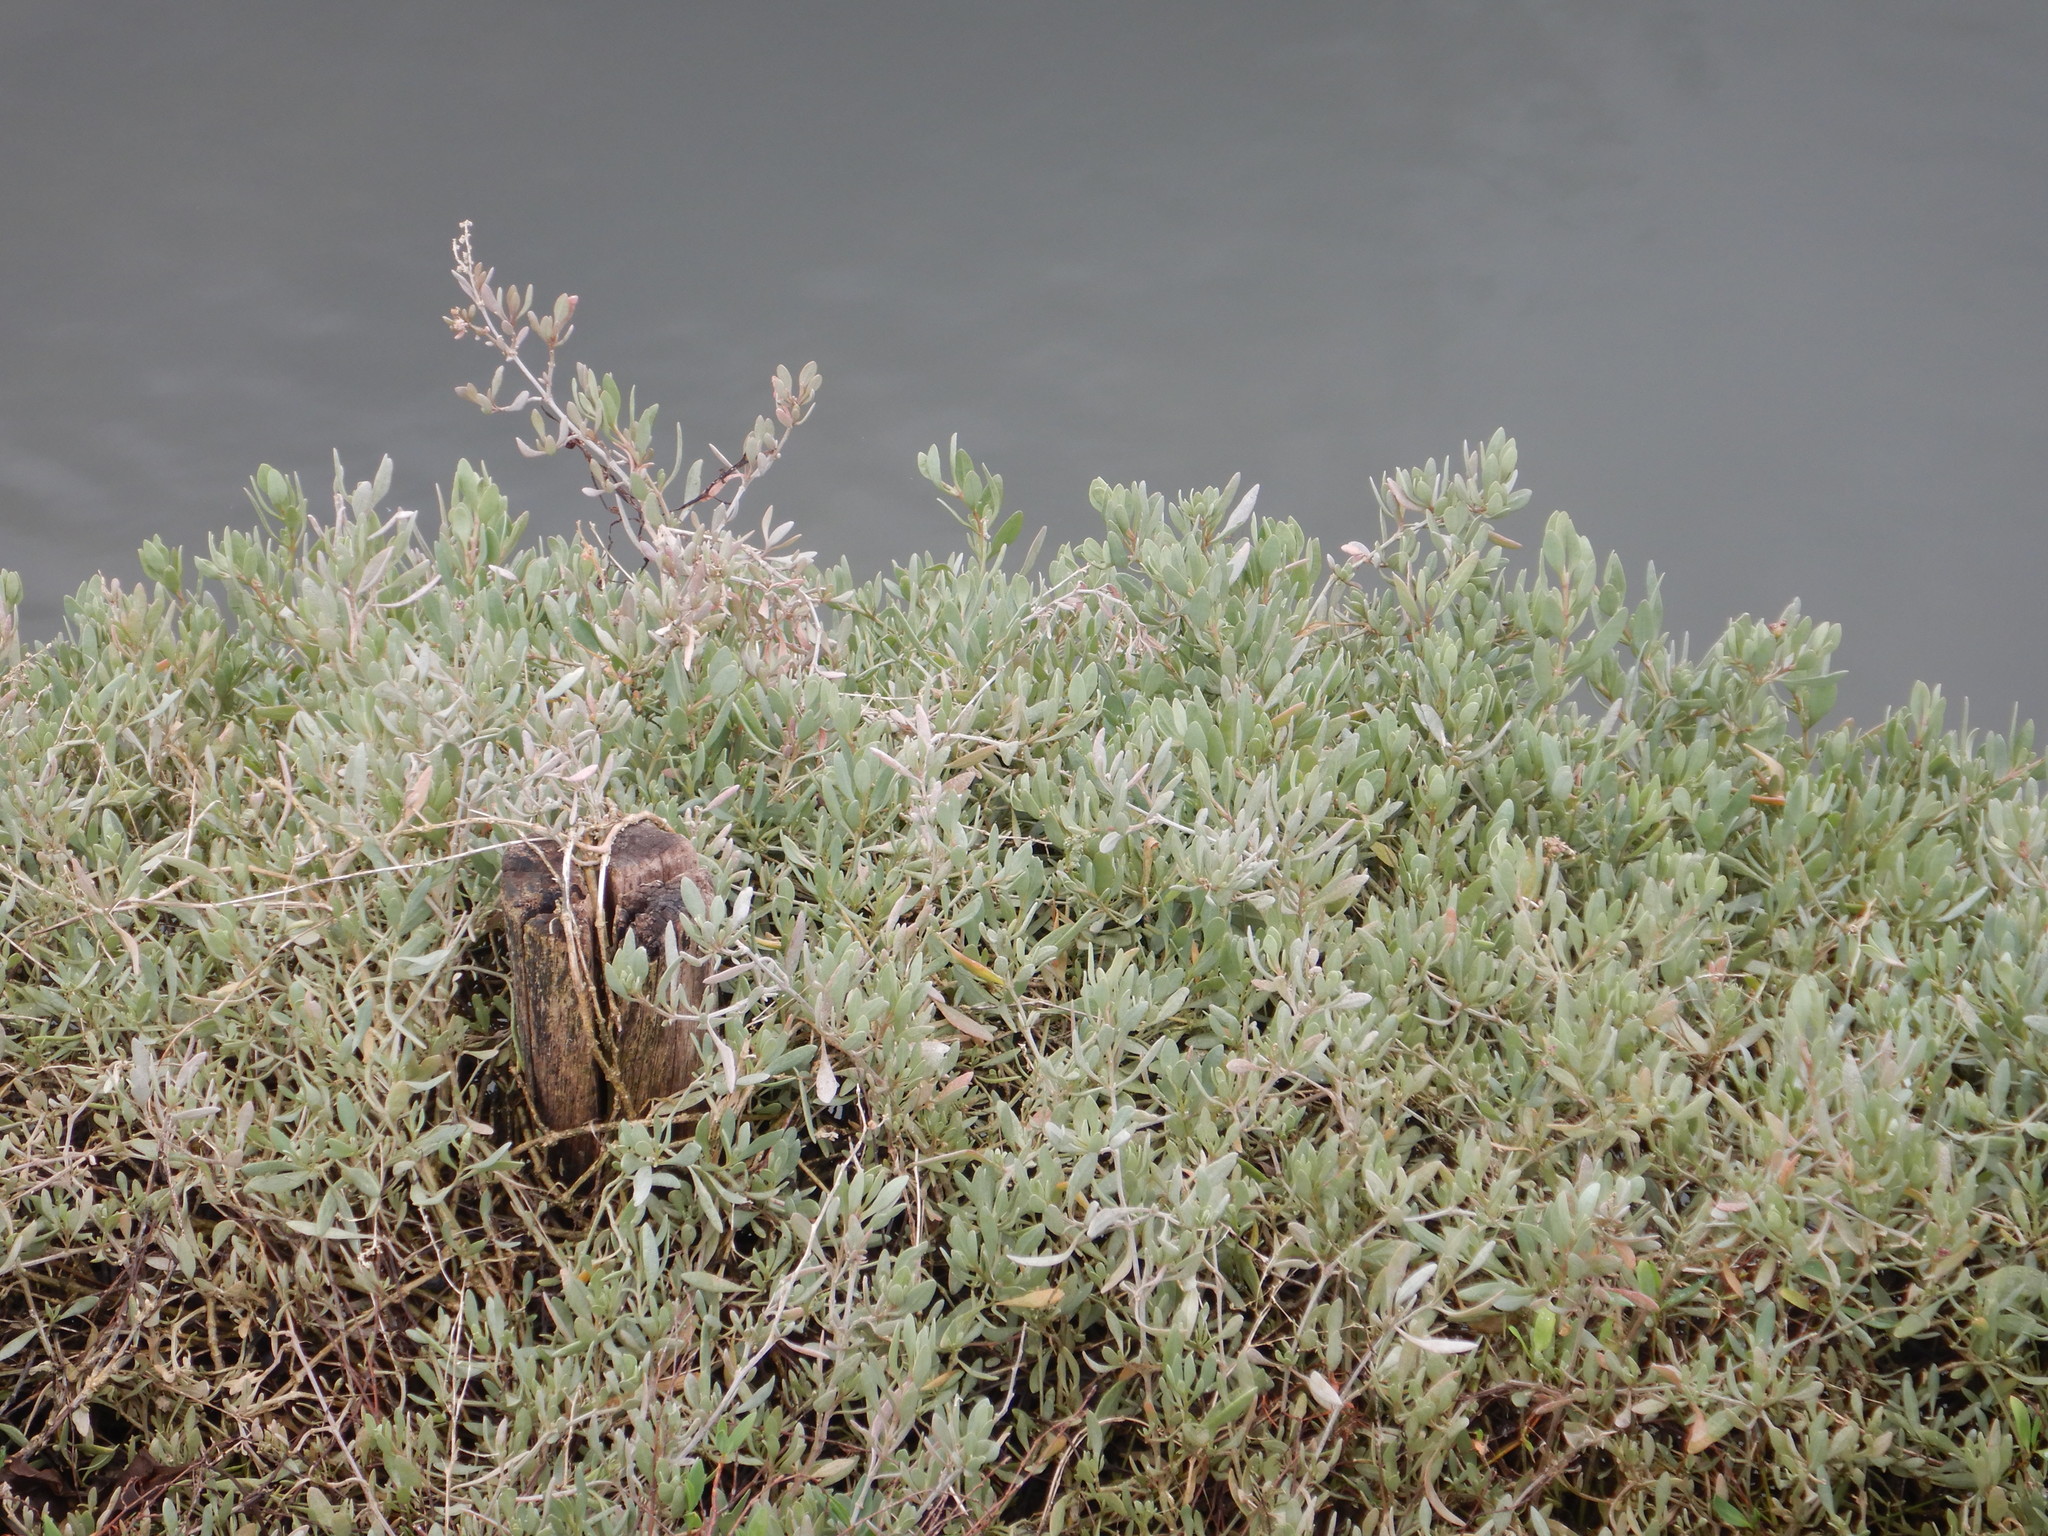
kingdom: Plantae
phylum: Tracheophyta
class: Magnoliopsida
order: Caryophyllales
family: Amaranthaceae
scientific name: Amaranthaceae
